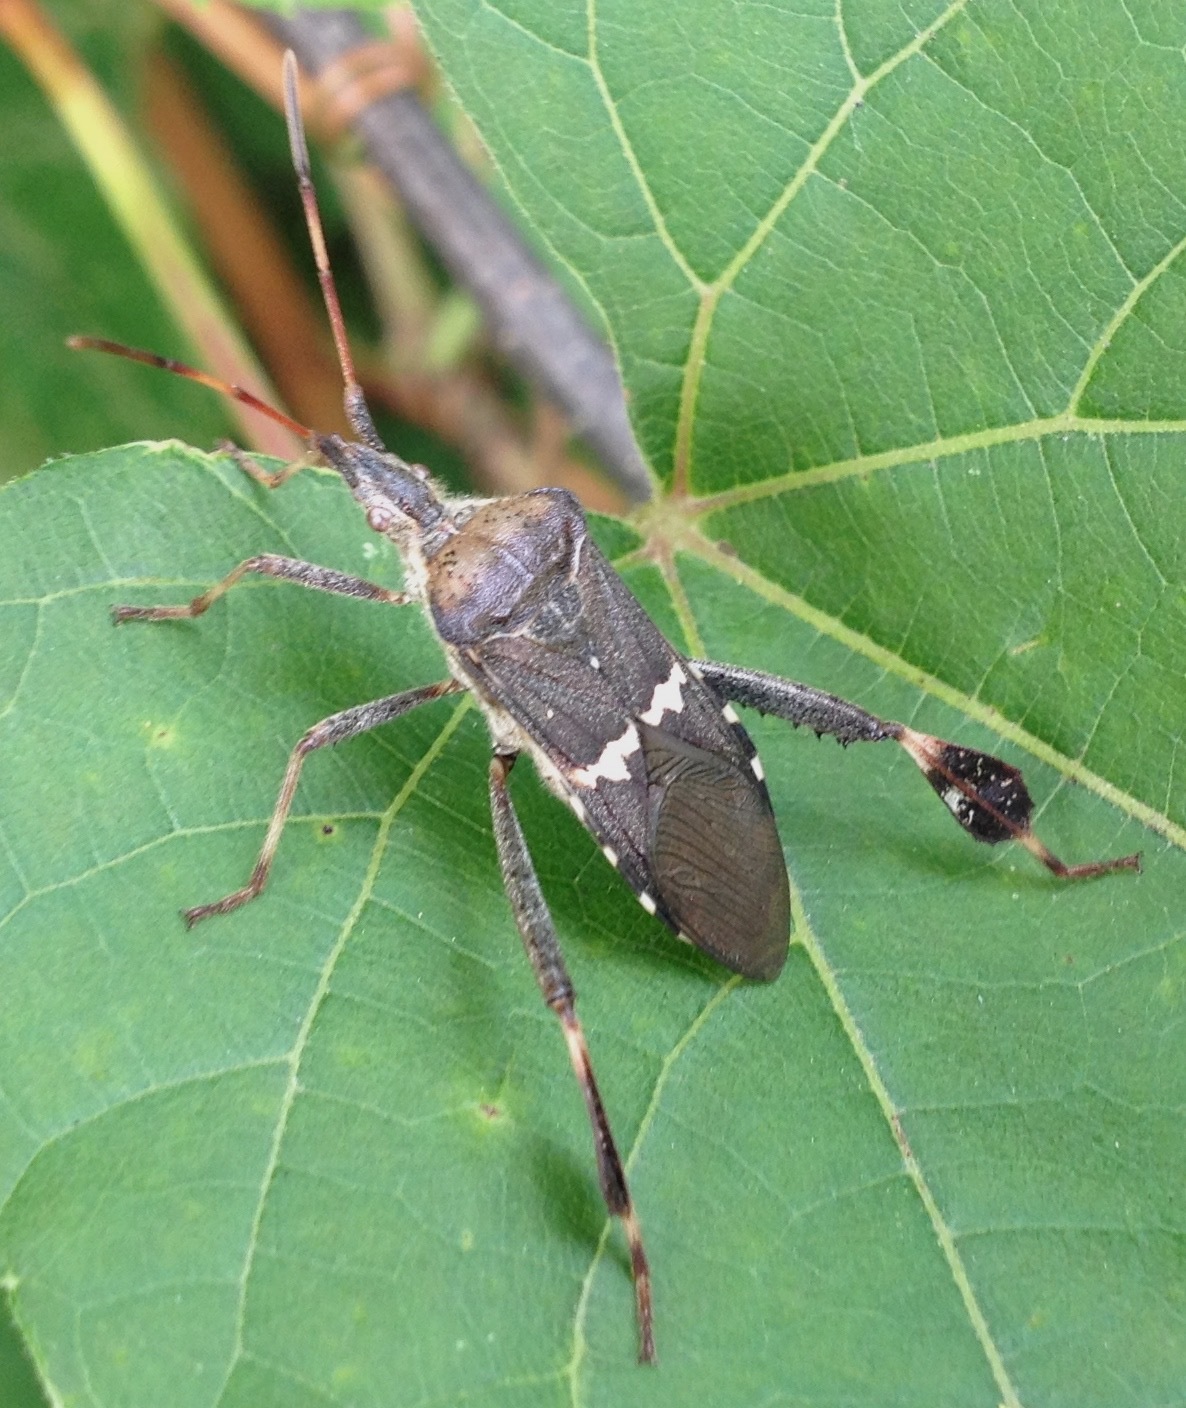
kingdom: Animalia
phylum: Arthropoda
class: Insecta
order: Hemiptera
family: Coreidae
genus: Leptoglossus
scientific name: Leptoglossus clypealis
